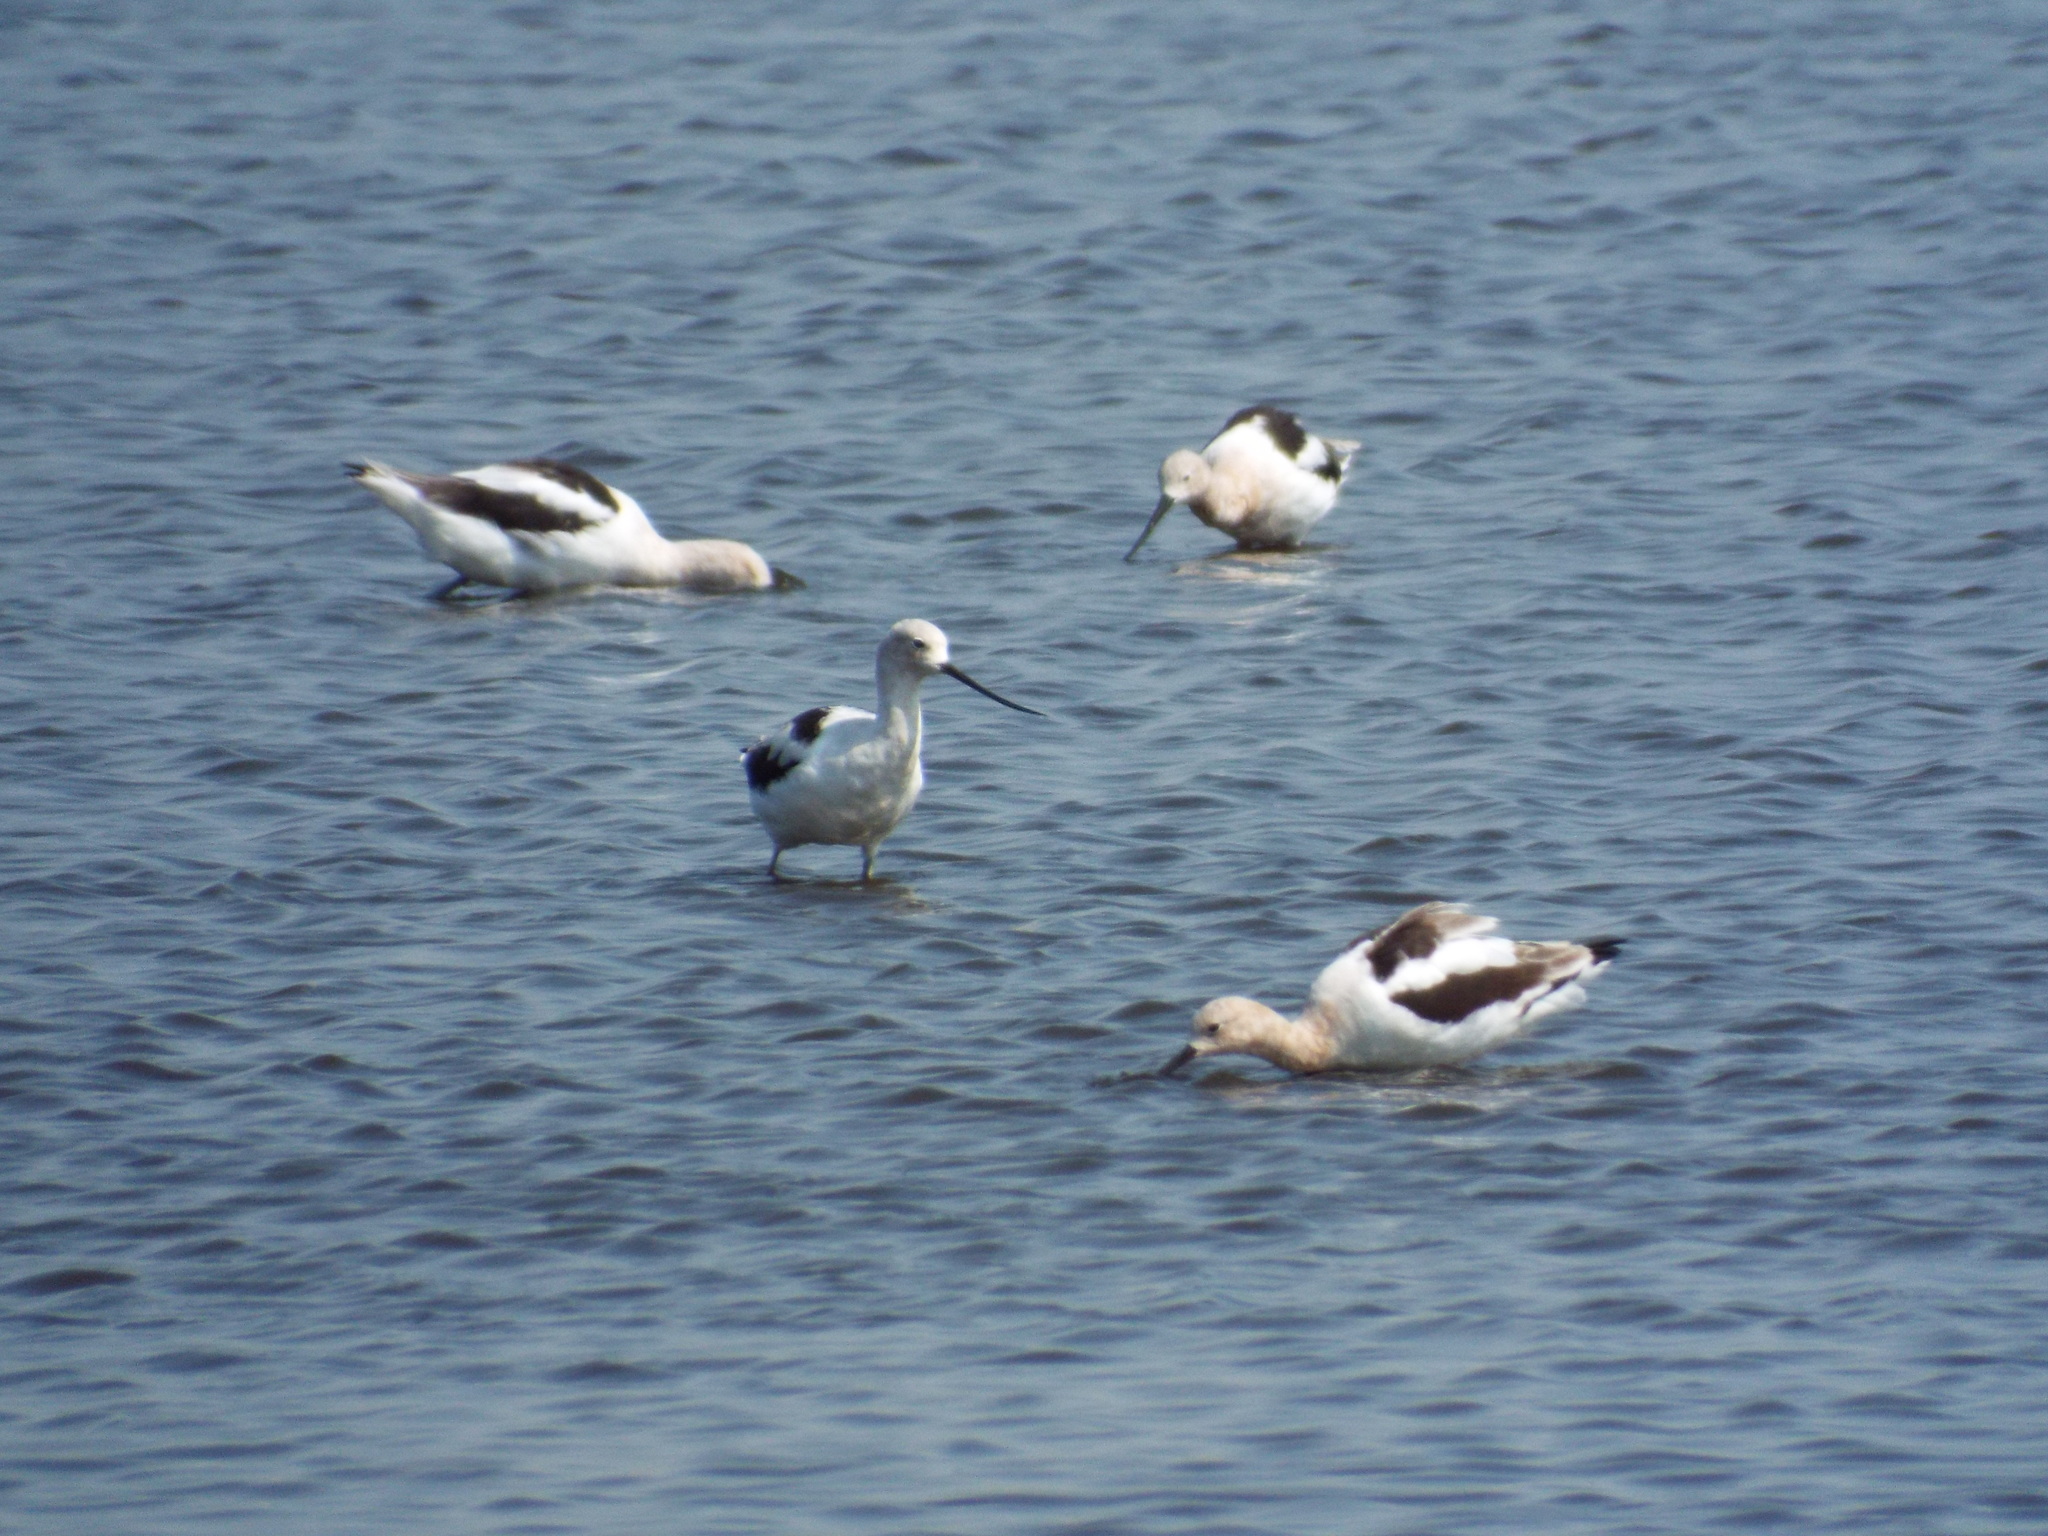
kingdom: Animalia
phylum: Chordata
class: Aves
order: Charadriiformes
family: Recurvirostridae
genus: Recurvirostra
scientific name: Recurvirostra americana
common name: American avocet
